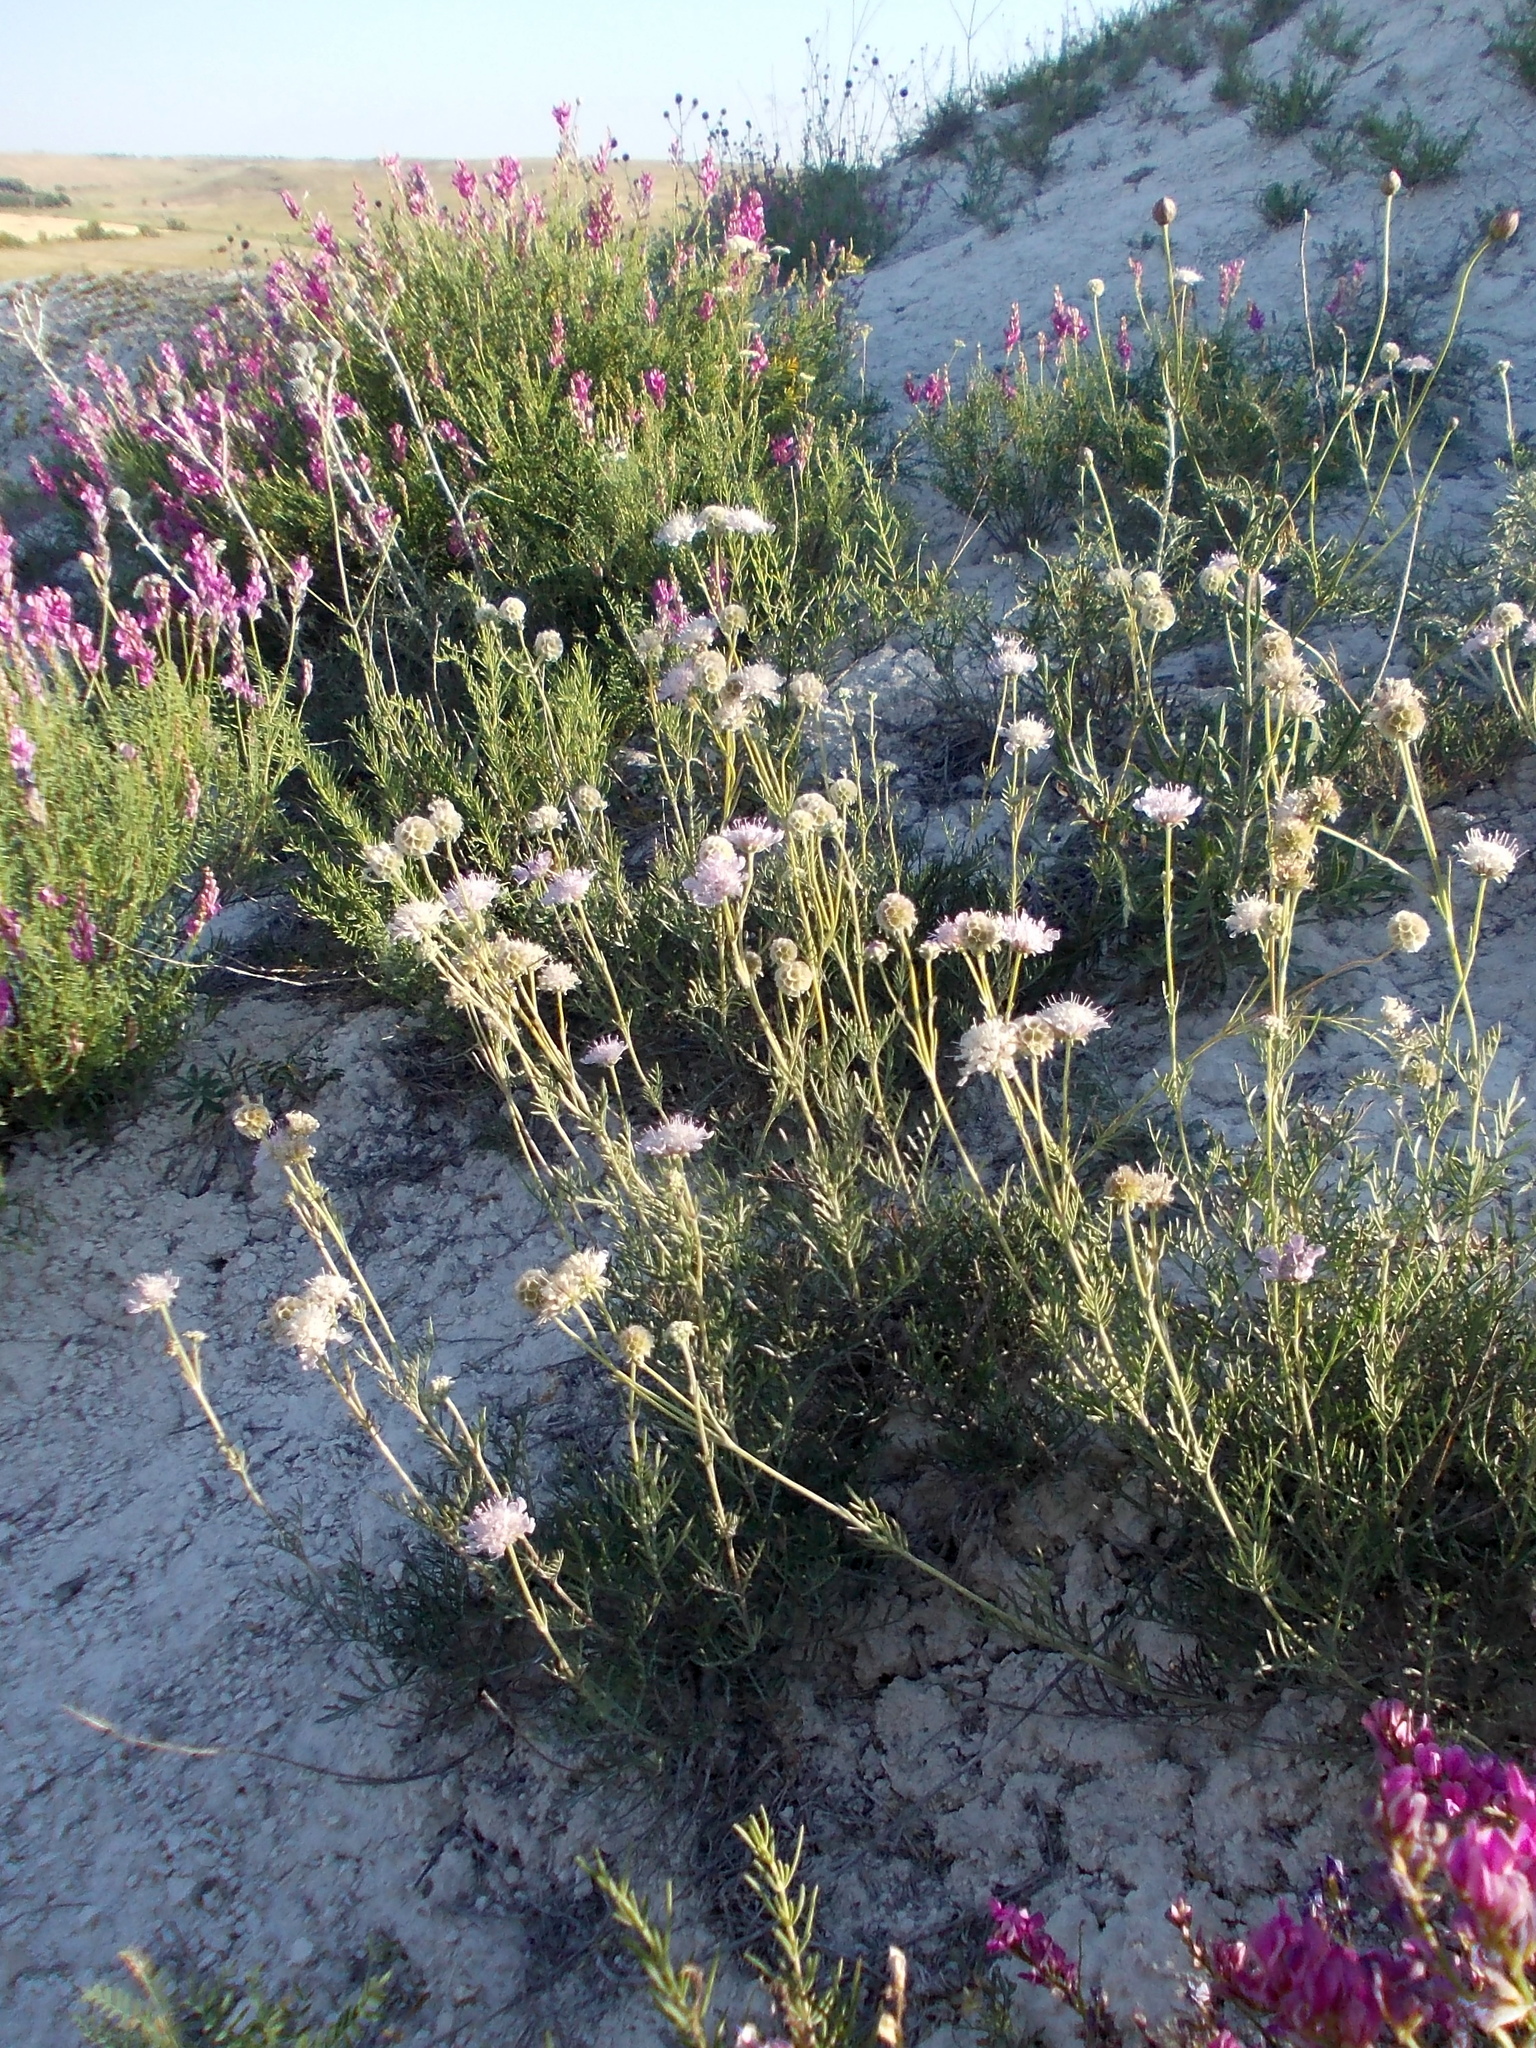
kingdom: Plantae
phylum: Tracheophyta
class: Magnoliopsida
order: Dipsacales
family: Caprifoliaceae
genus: Lomelosia
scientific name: Lomelosia isetensis
